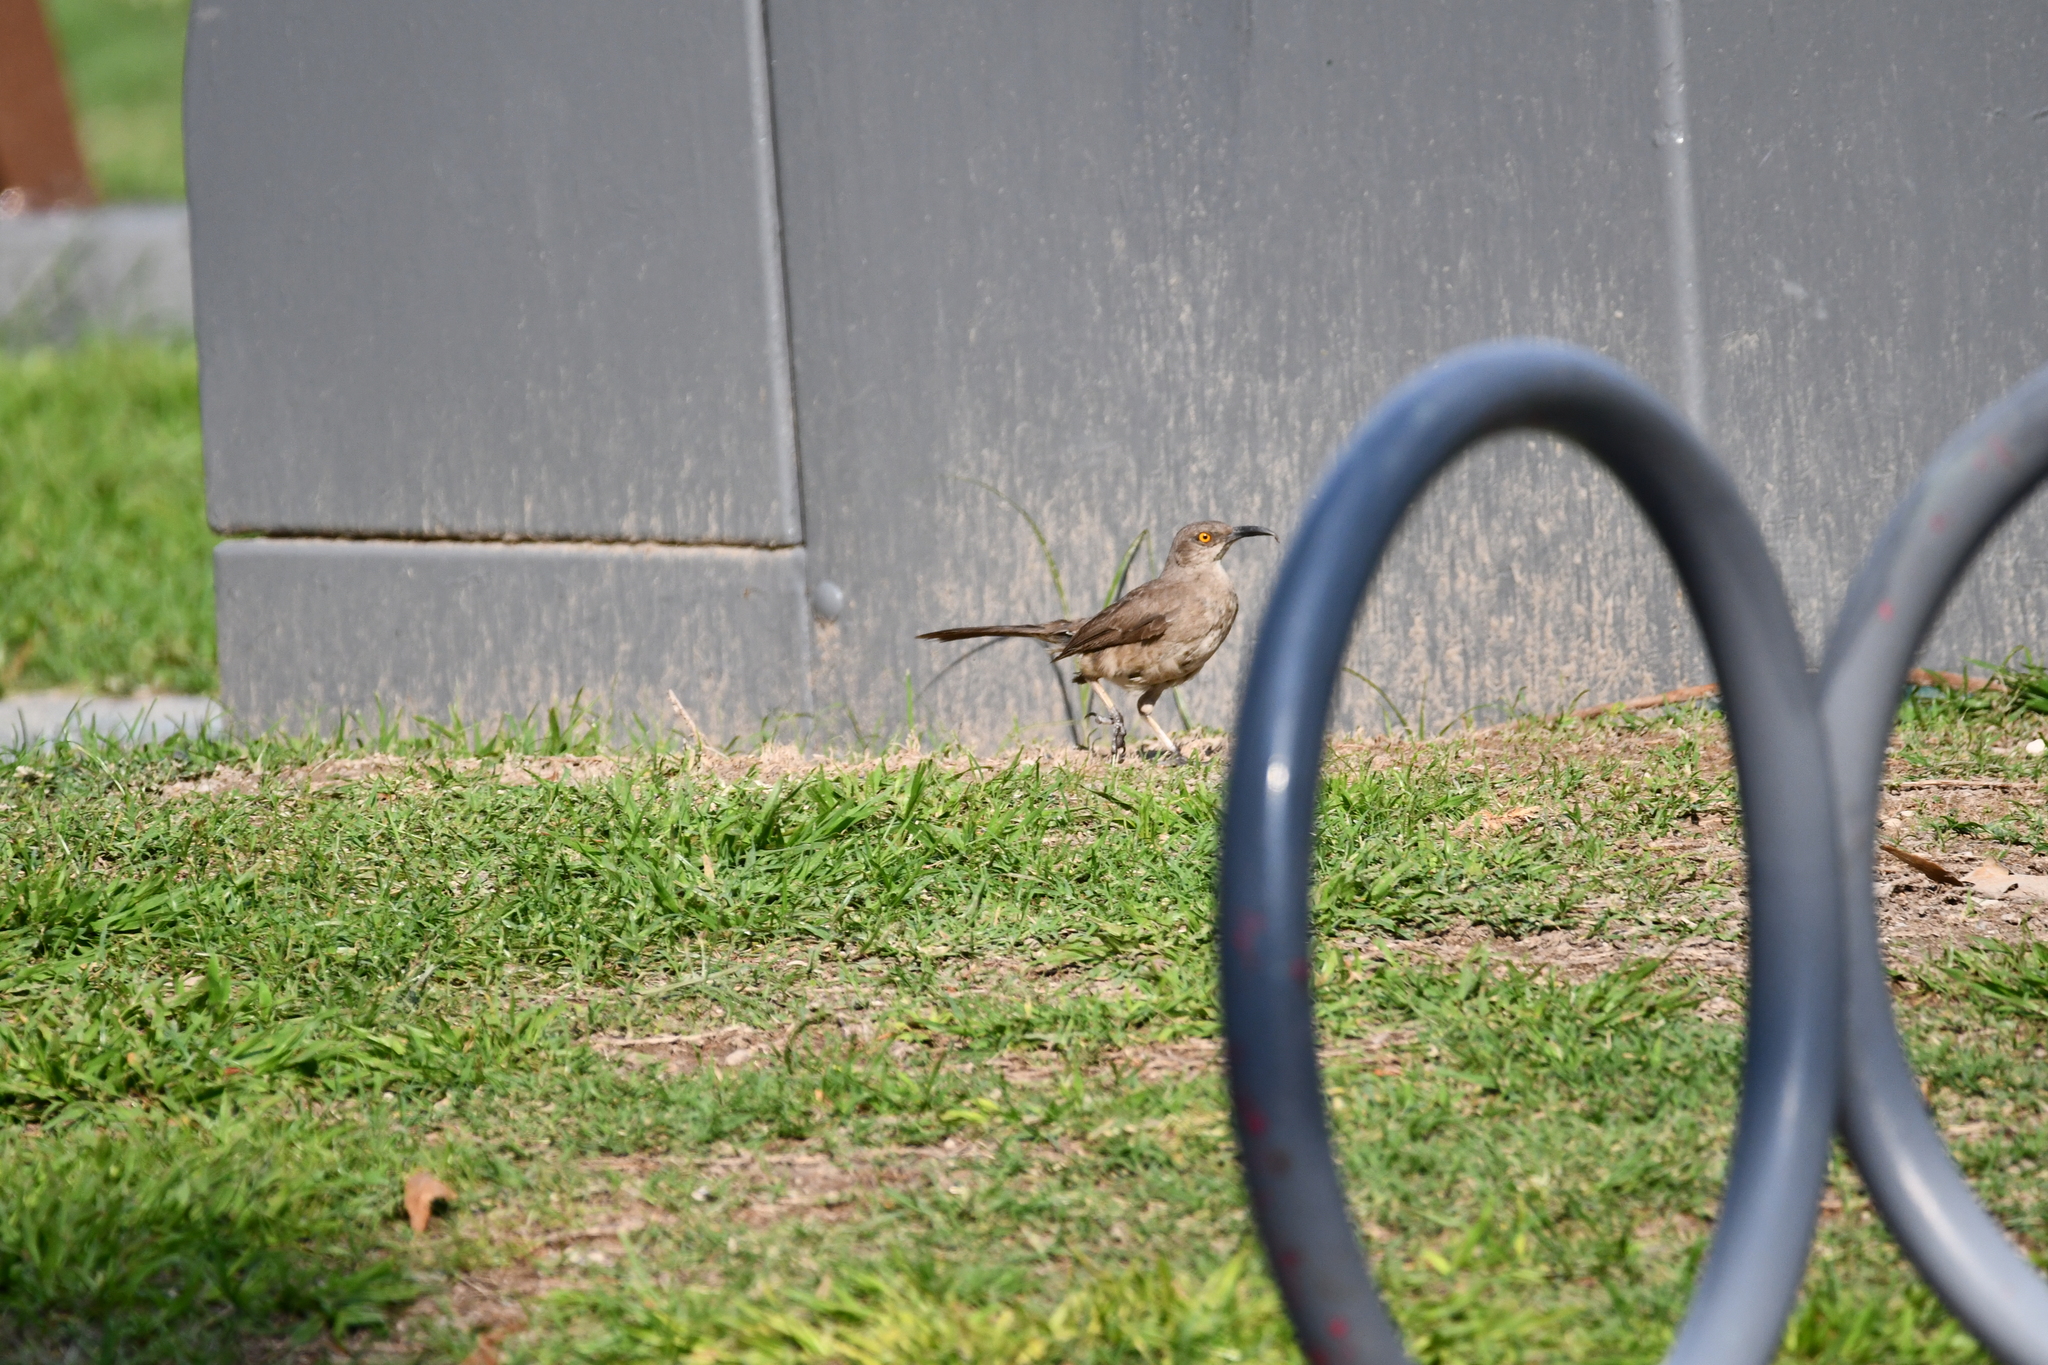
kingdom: Animalia
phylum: Chordata
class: Aves
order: Passeriformes
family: Mimidae
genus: Toxostoma
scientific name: Toxostoma curvirostre
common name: Curve-billed thrasher
